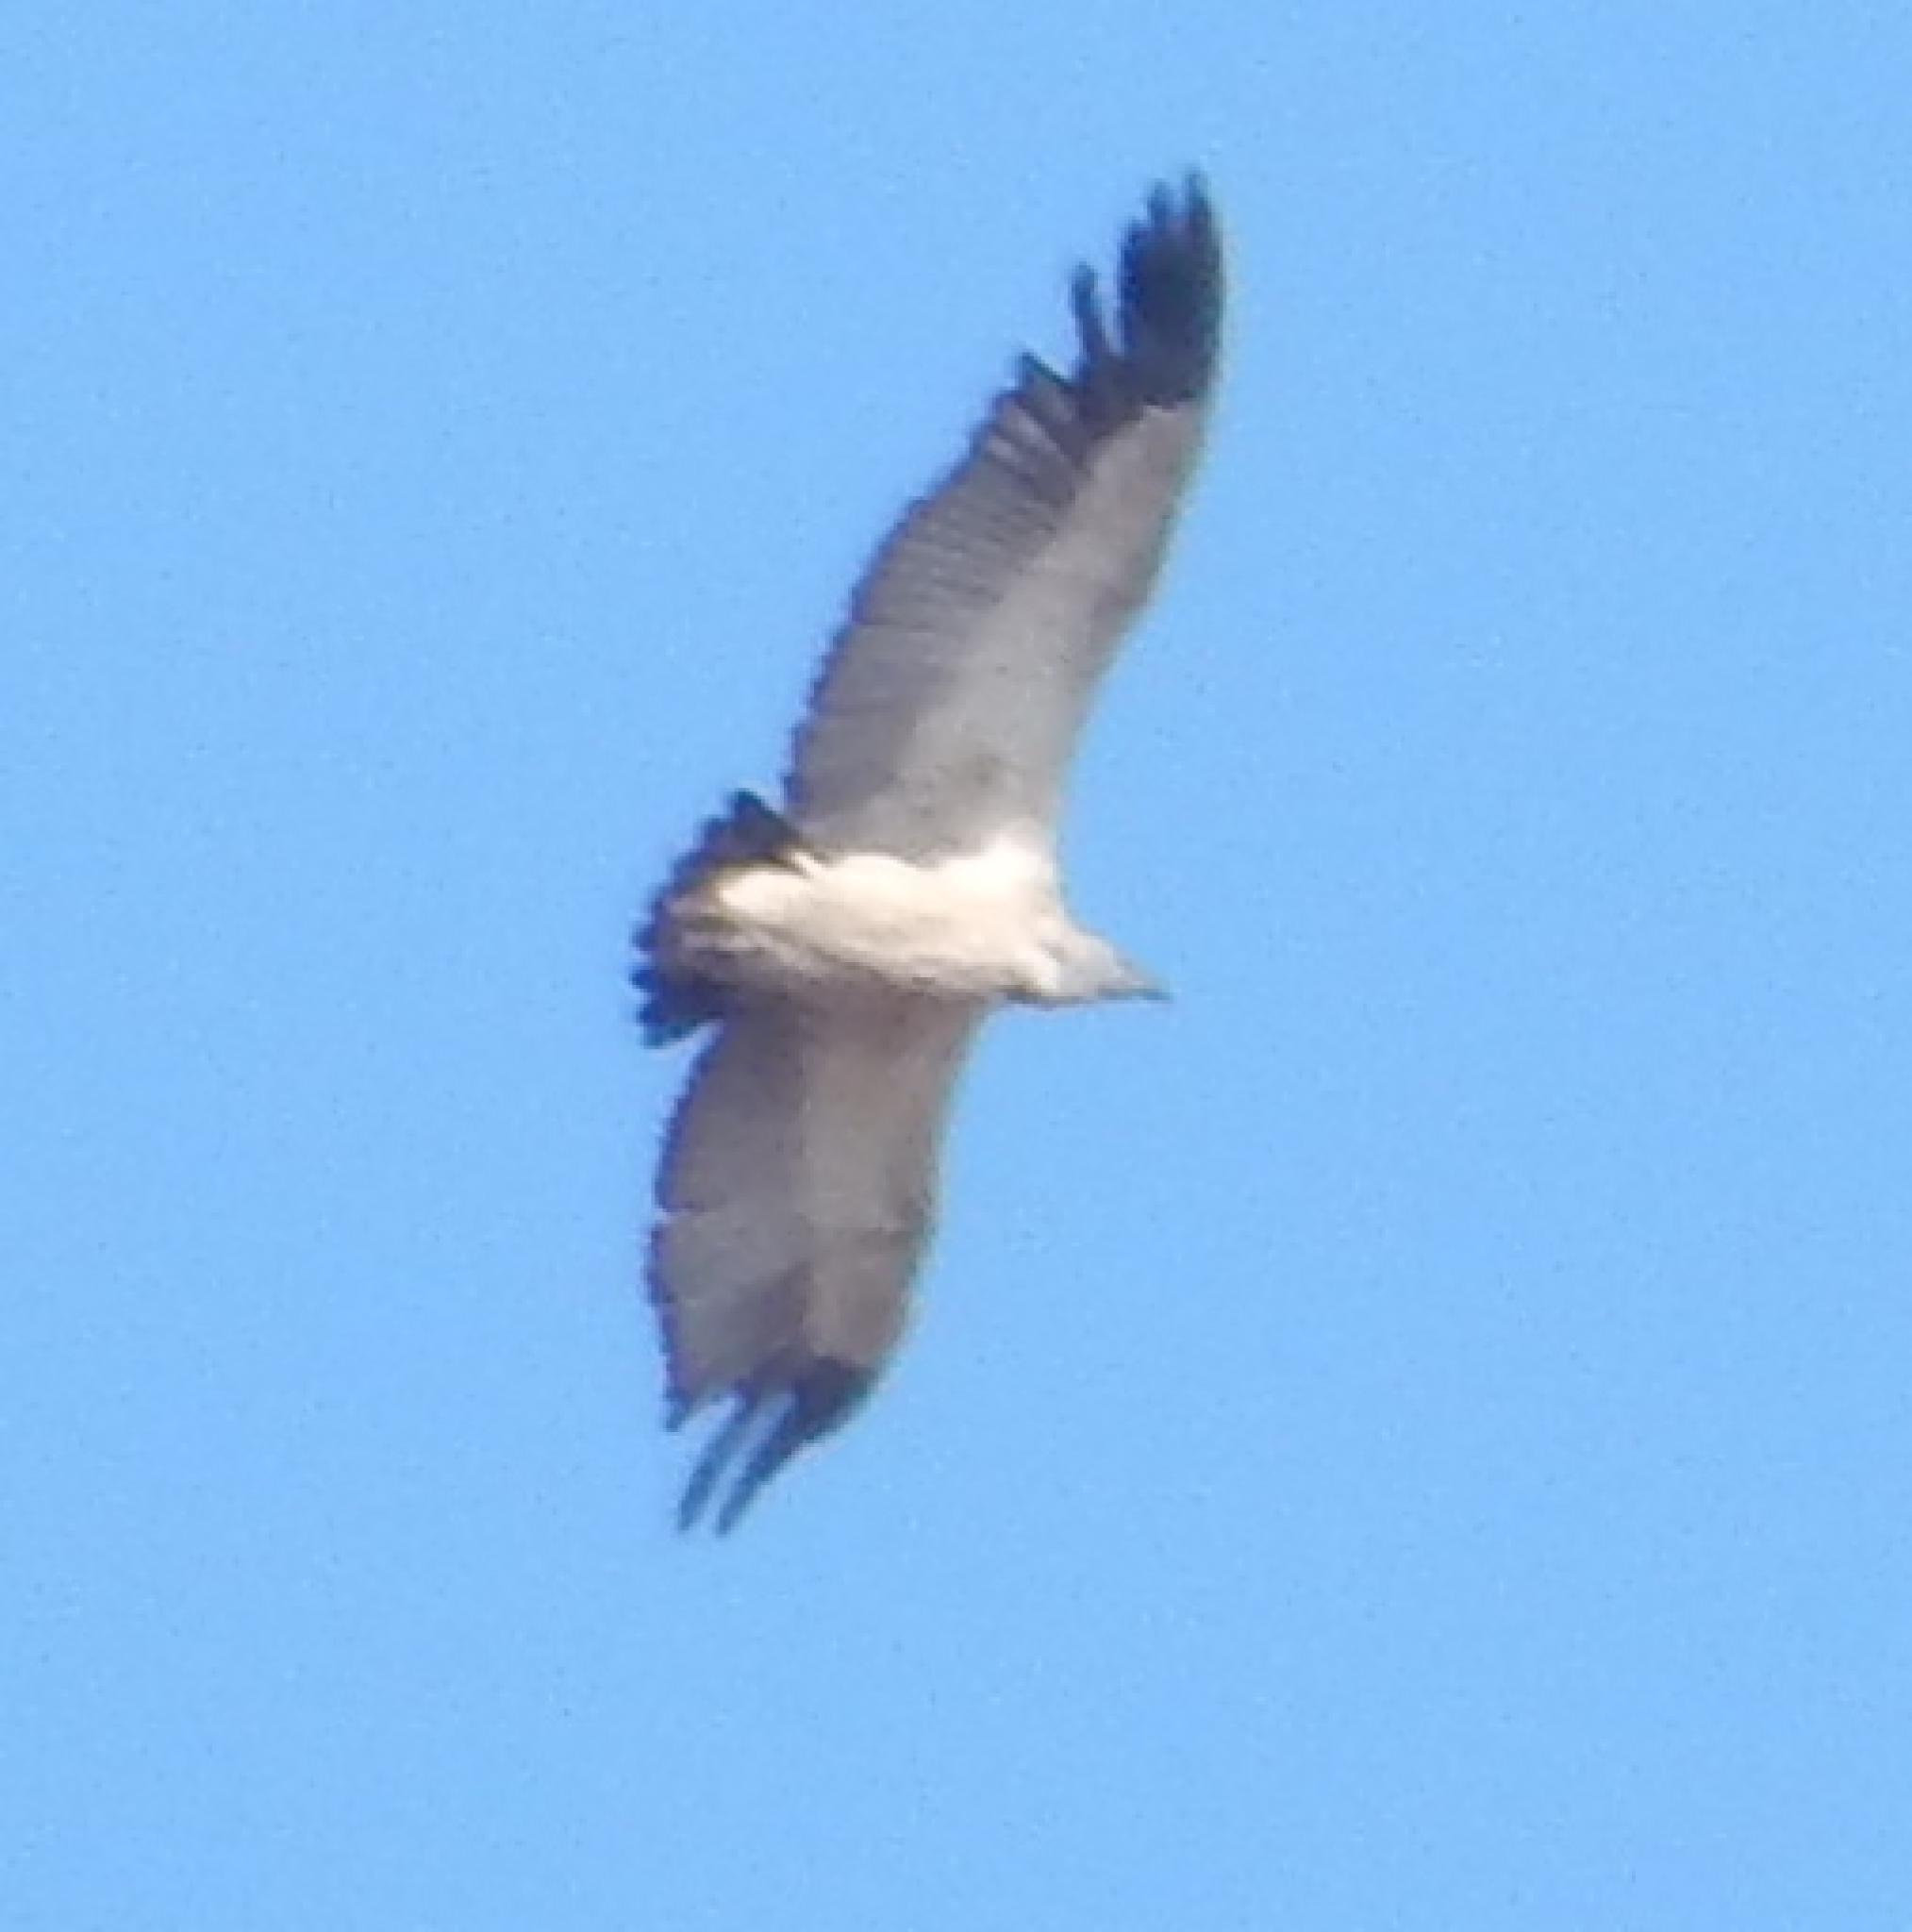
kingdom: Animalia
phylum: Chordata
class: Aves
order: Accipitriformes
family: Accipitridae
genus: Gyps
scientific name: Gyps coprotheres
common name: Cape vulture
